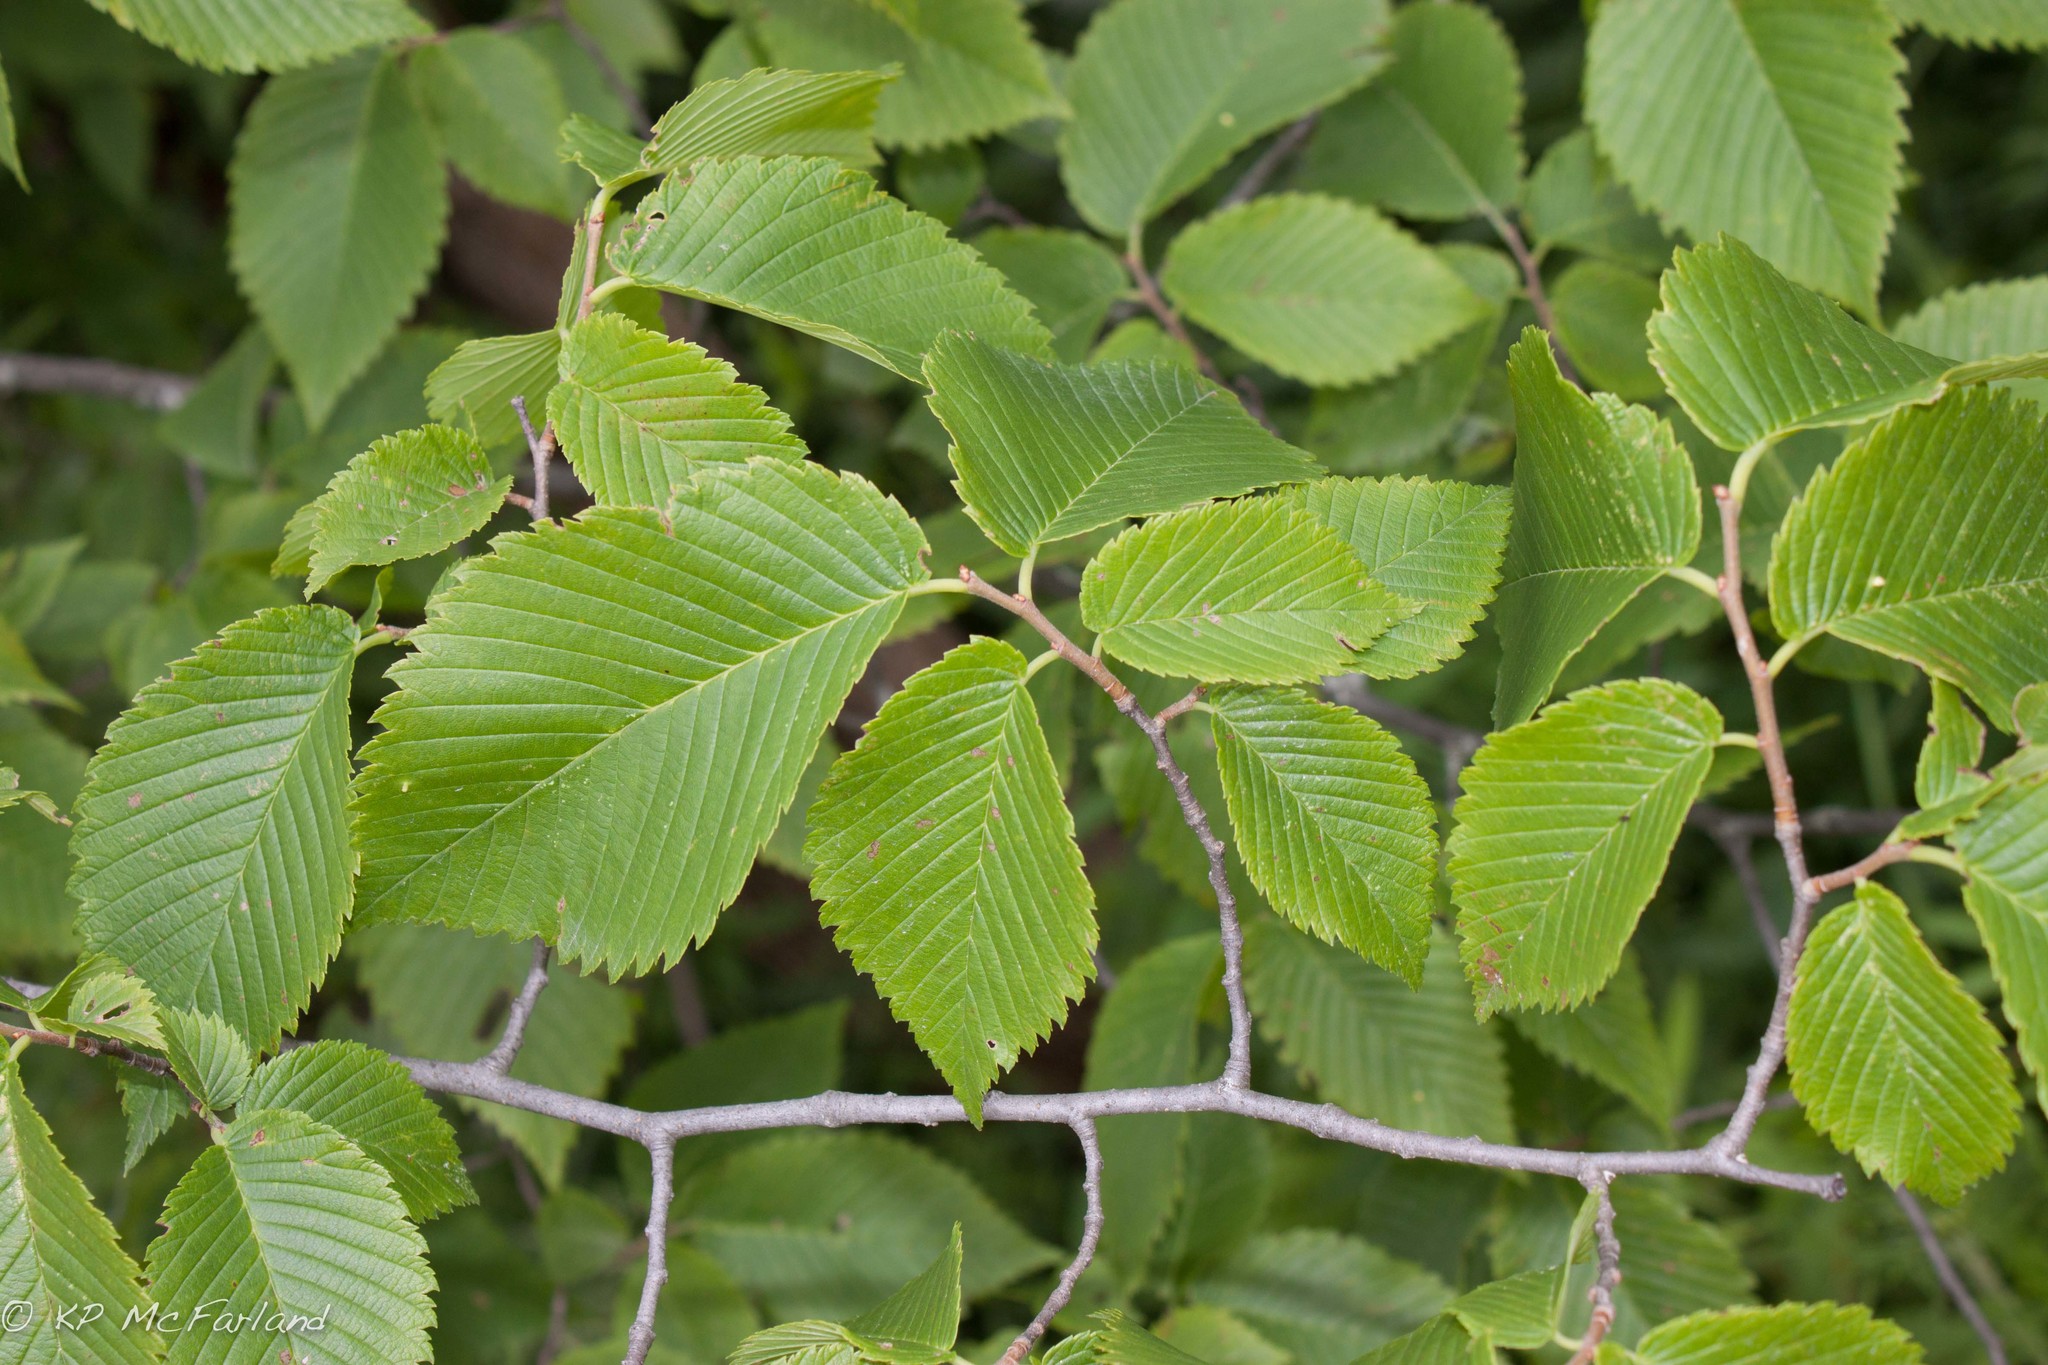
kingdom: Plantae
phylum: Tracheophyta
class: Magnoliopsida
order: Rosales
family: Ulmaceae
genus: Ulmus
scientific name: Ulmus americana
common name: American elm
